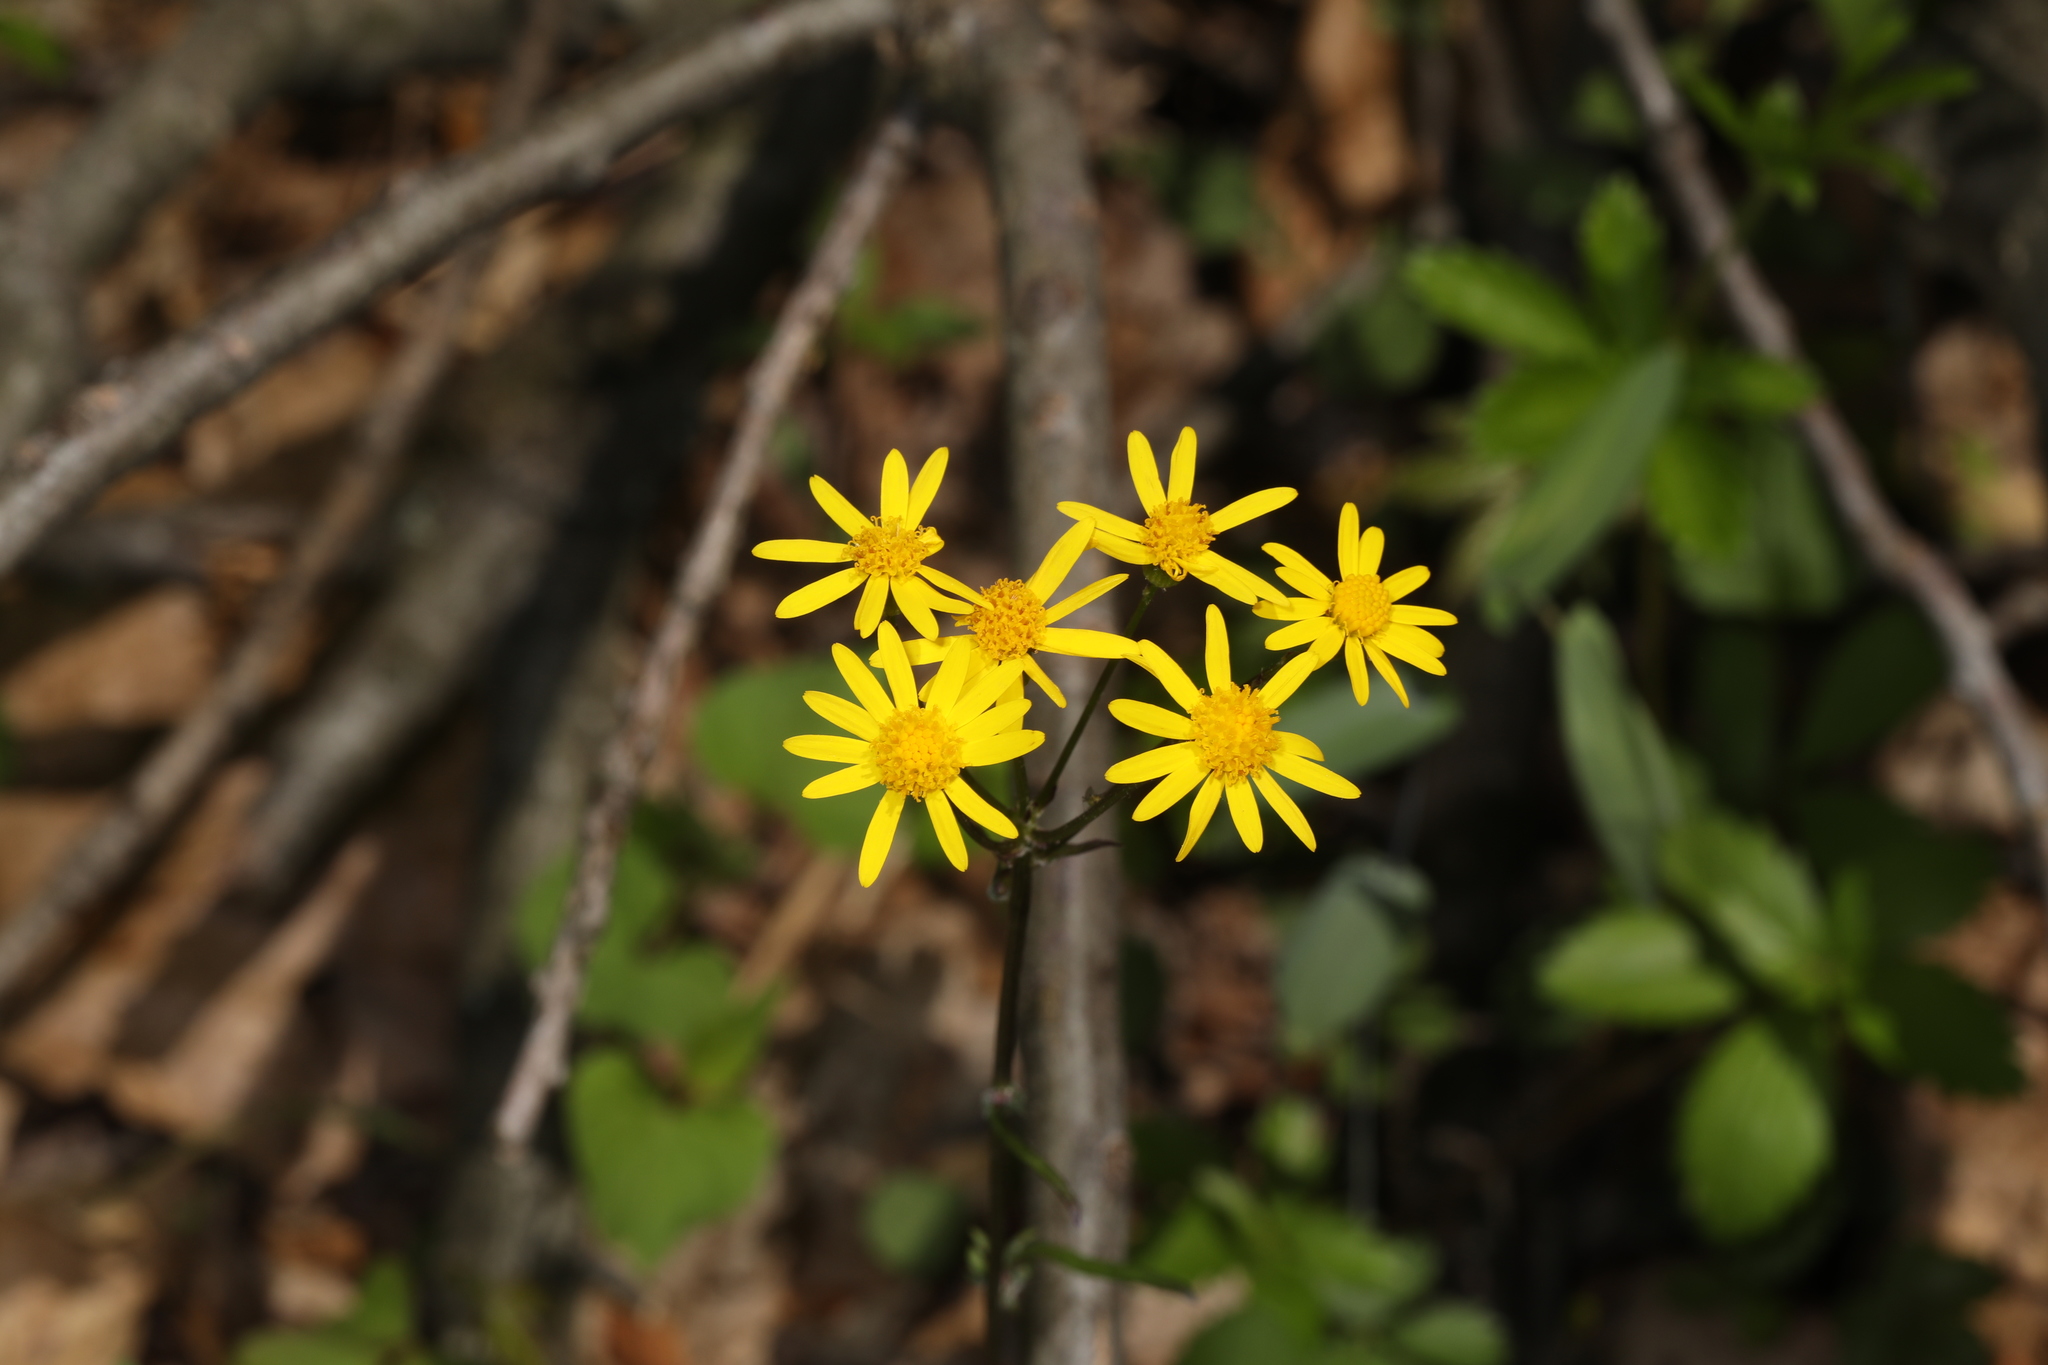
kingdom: Plantae
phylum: Tracheophyta
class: Magnoliopsida
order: Asterales
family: Asteraceae
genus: Packera
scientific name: Packera aurea
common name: Golden groundsel
